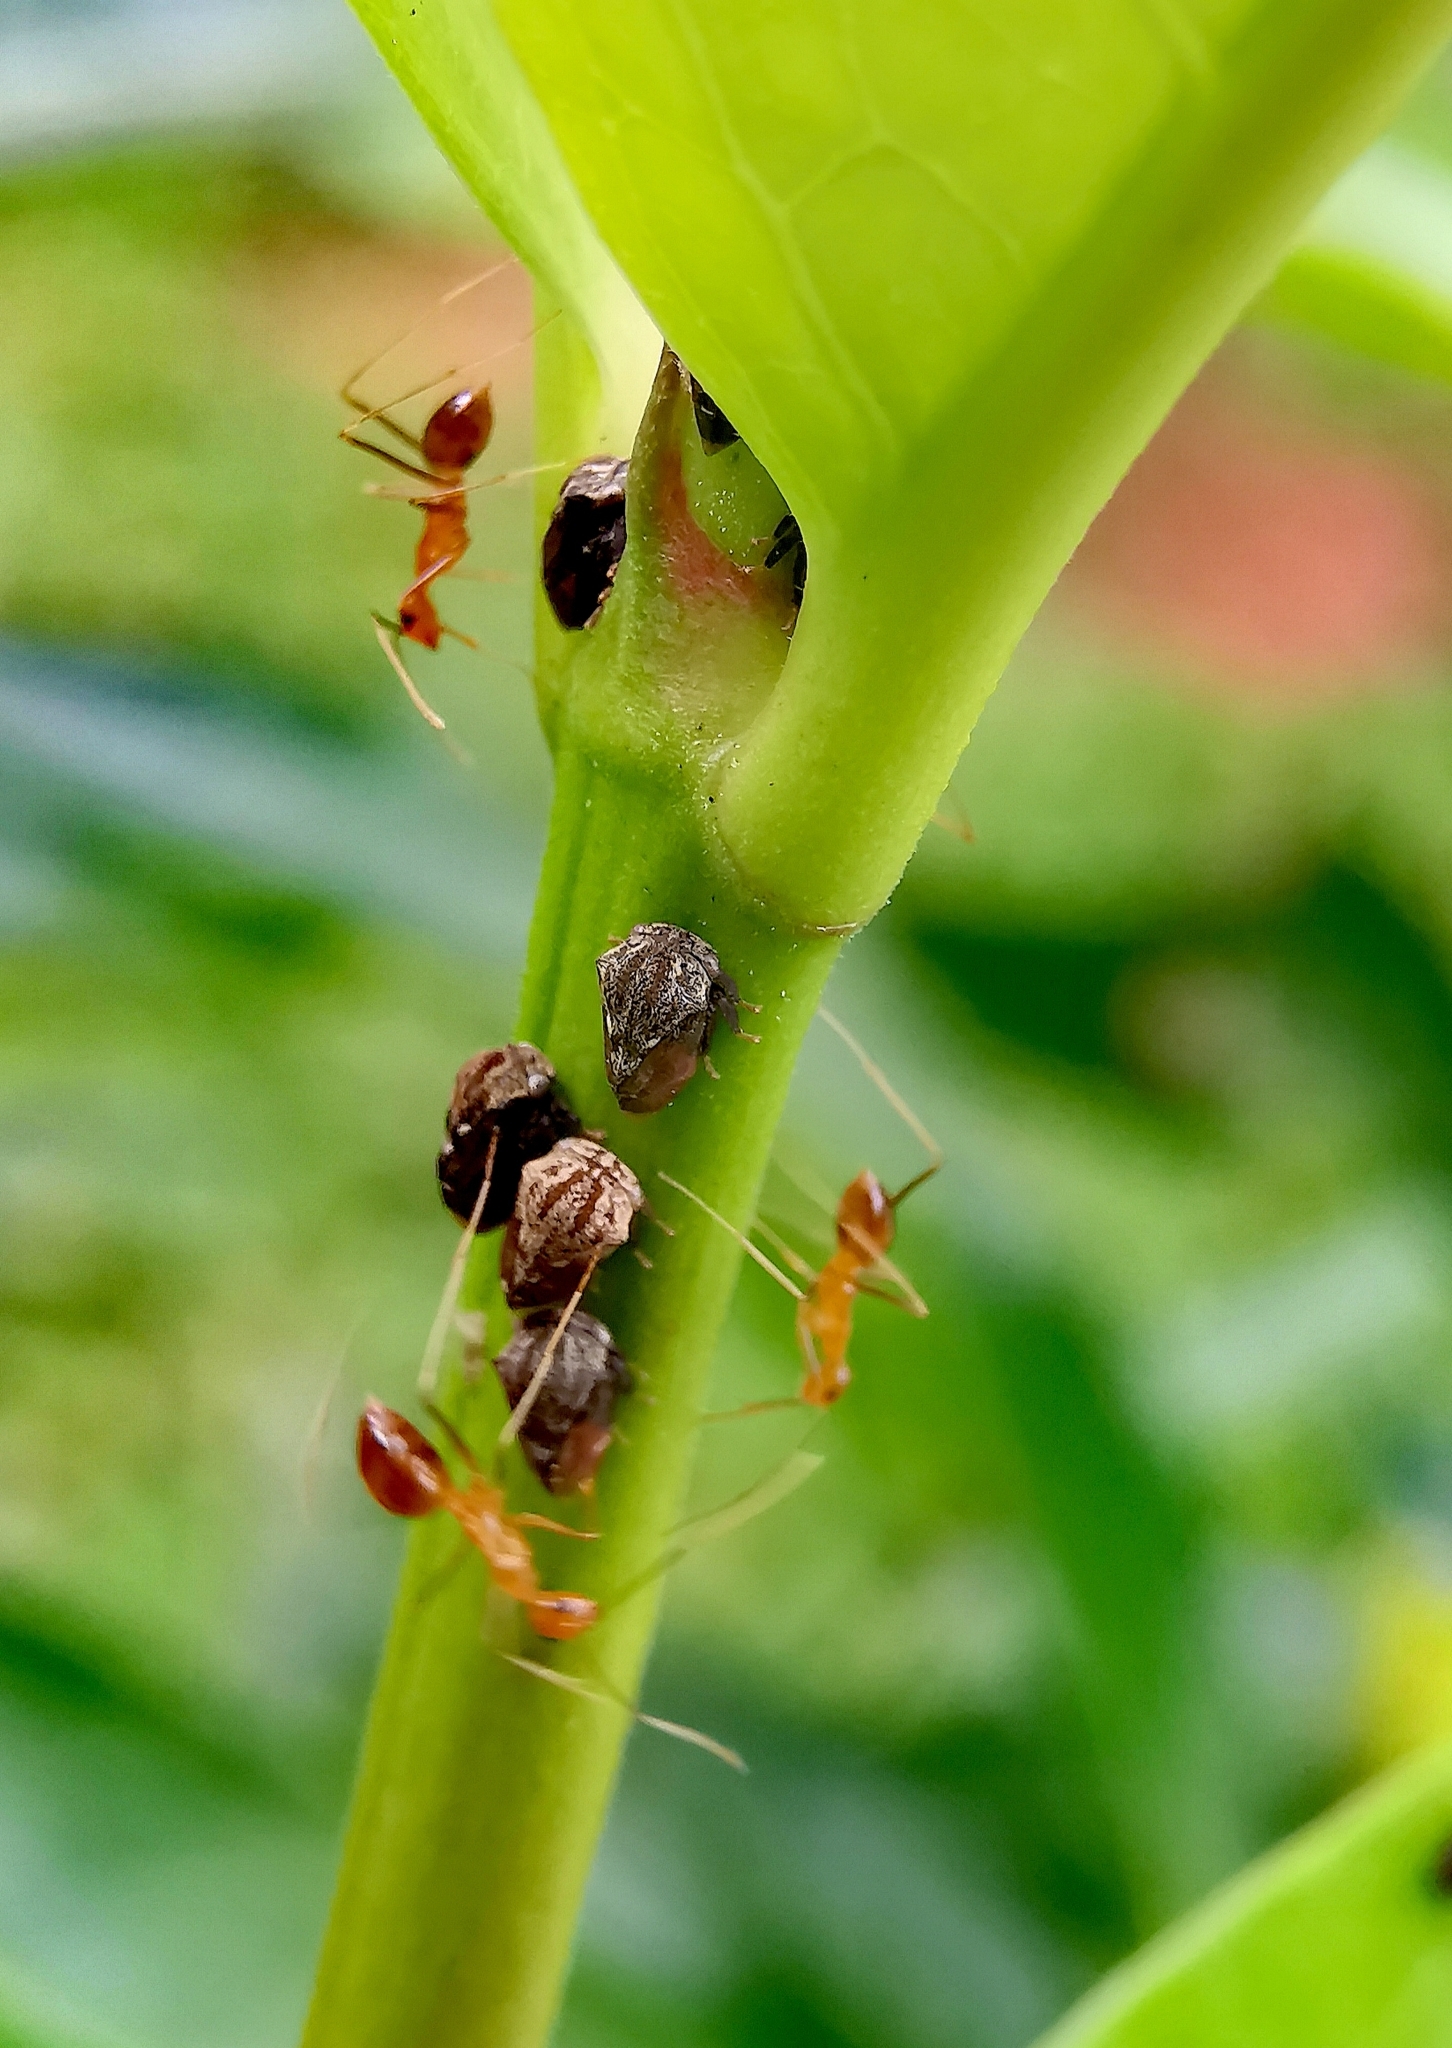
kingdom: Animalia
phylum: Arthropoda
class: Insecta
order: Hymenoptera
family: Formicidae
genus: Anoplolepis
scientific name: Anoplolepis gracilipes
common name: Ant
